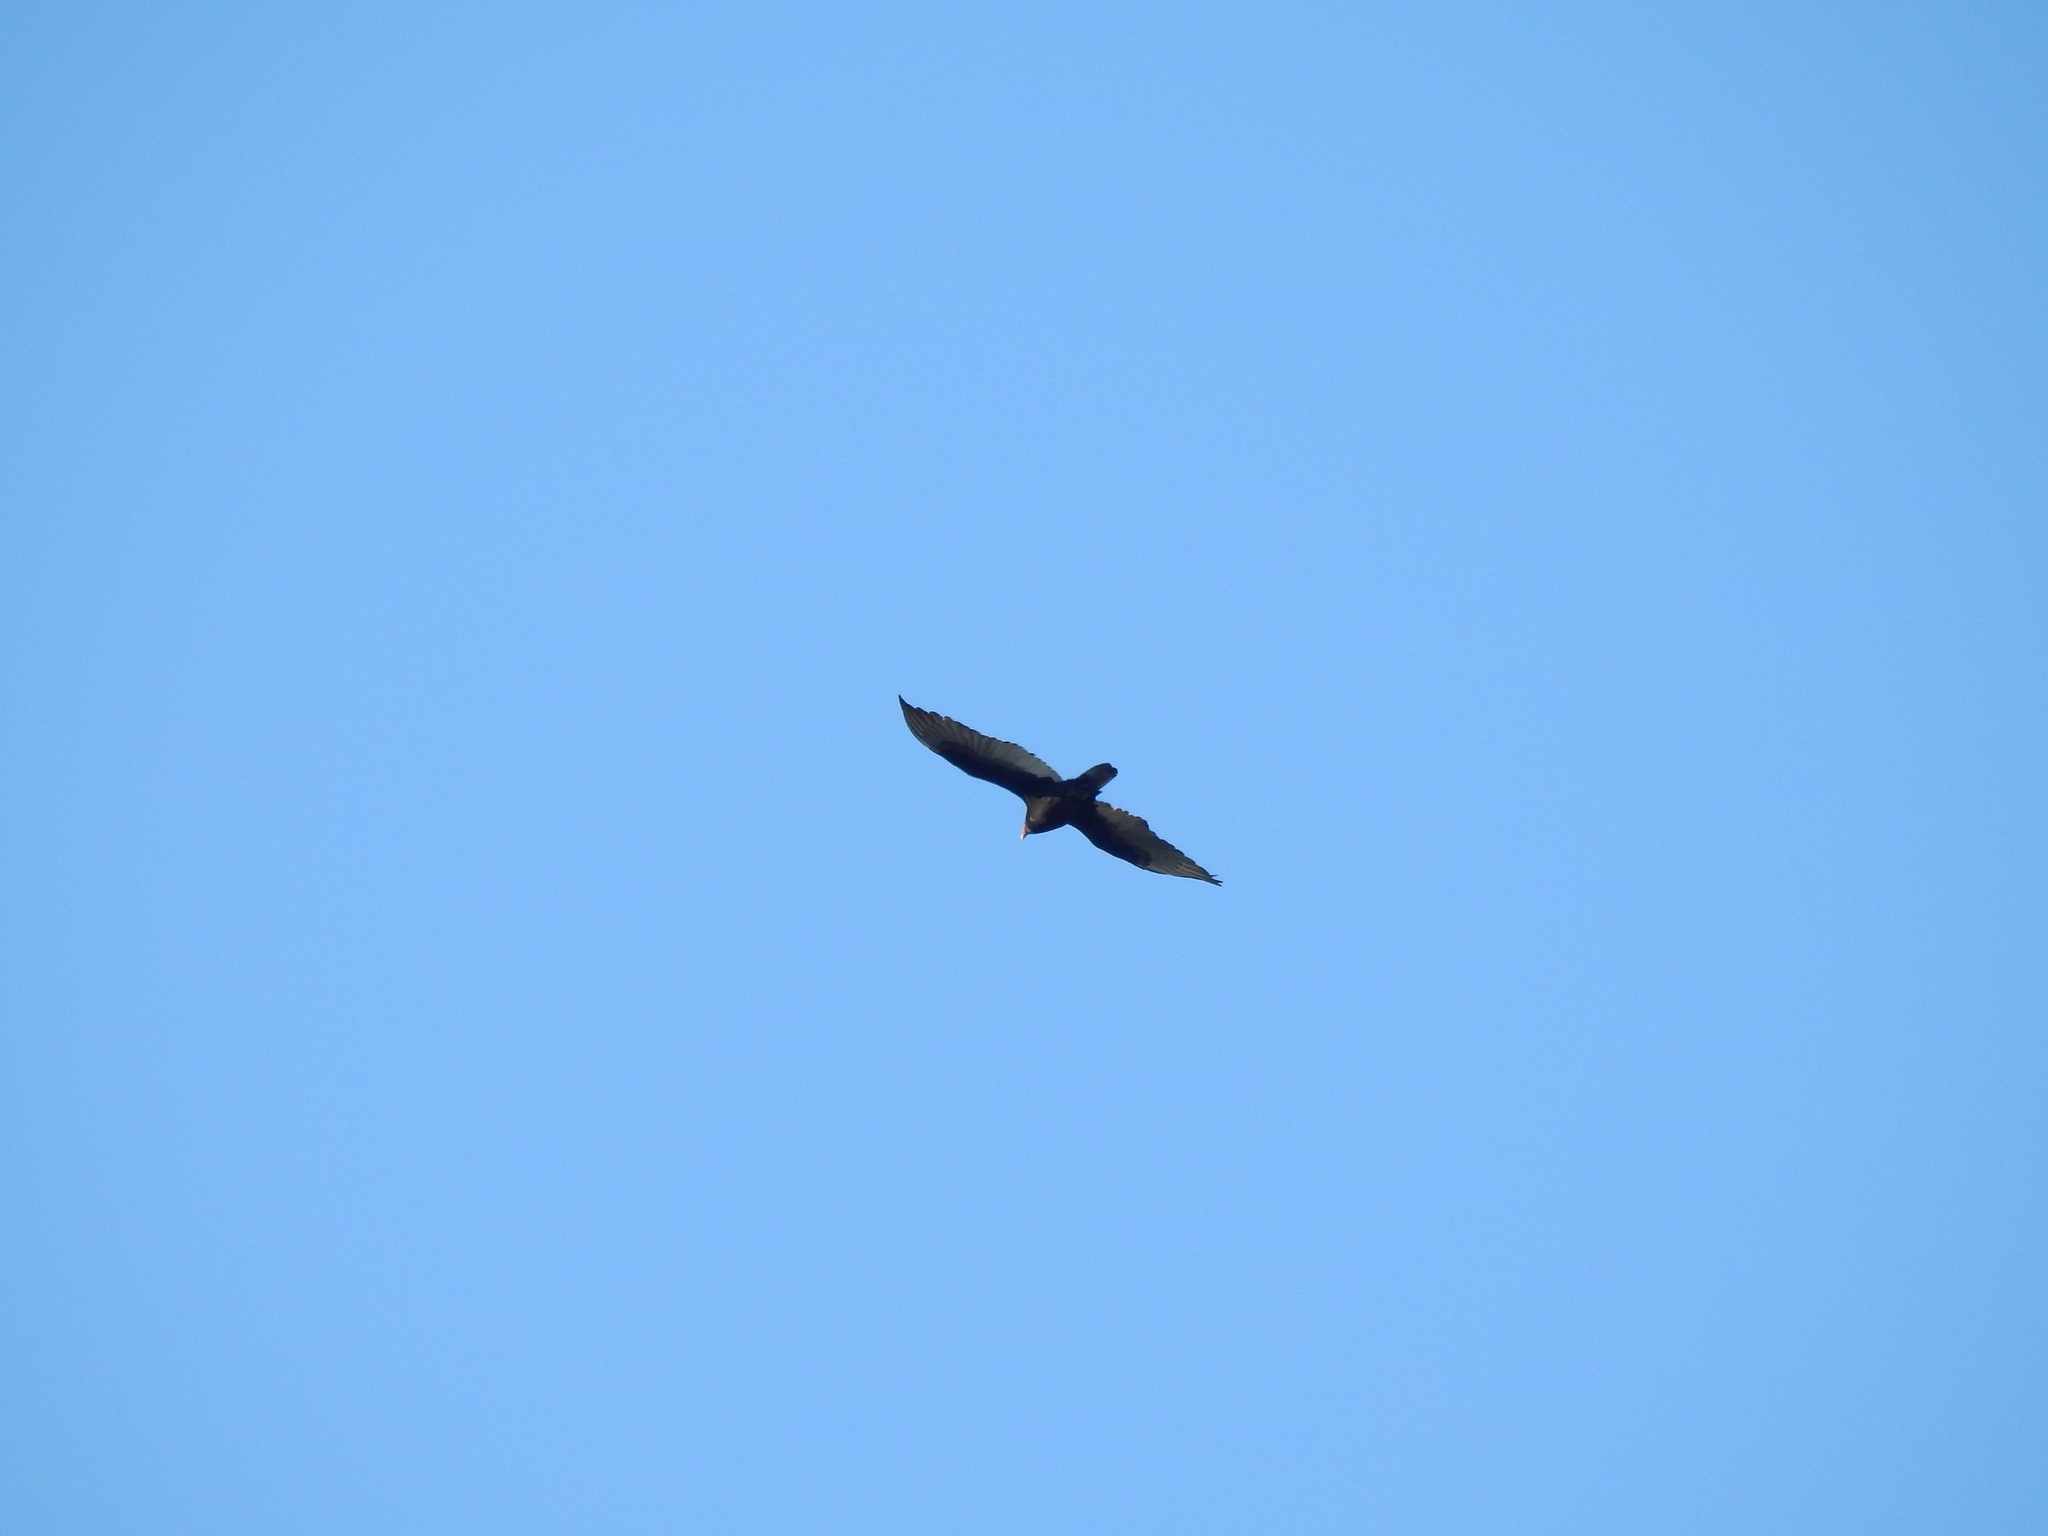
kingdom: Animalia
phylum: Chordata
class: Aves
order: Accipitriformes
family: Cathartidae
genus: Cathartes
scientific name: Cathartes aura
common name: Turkey vulture
